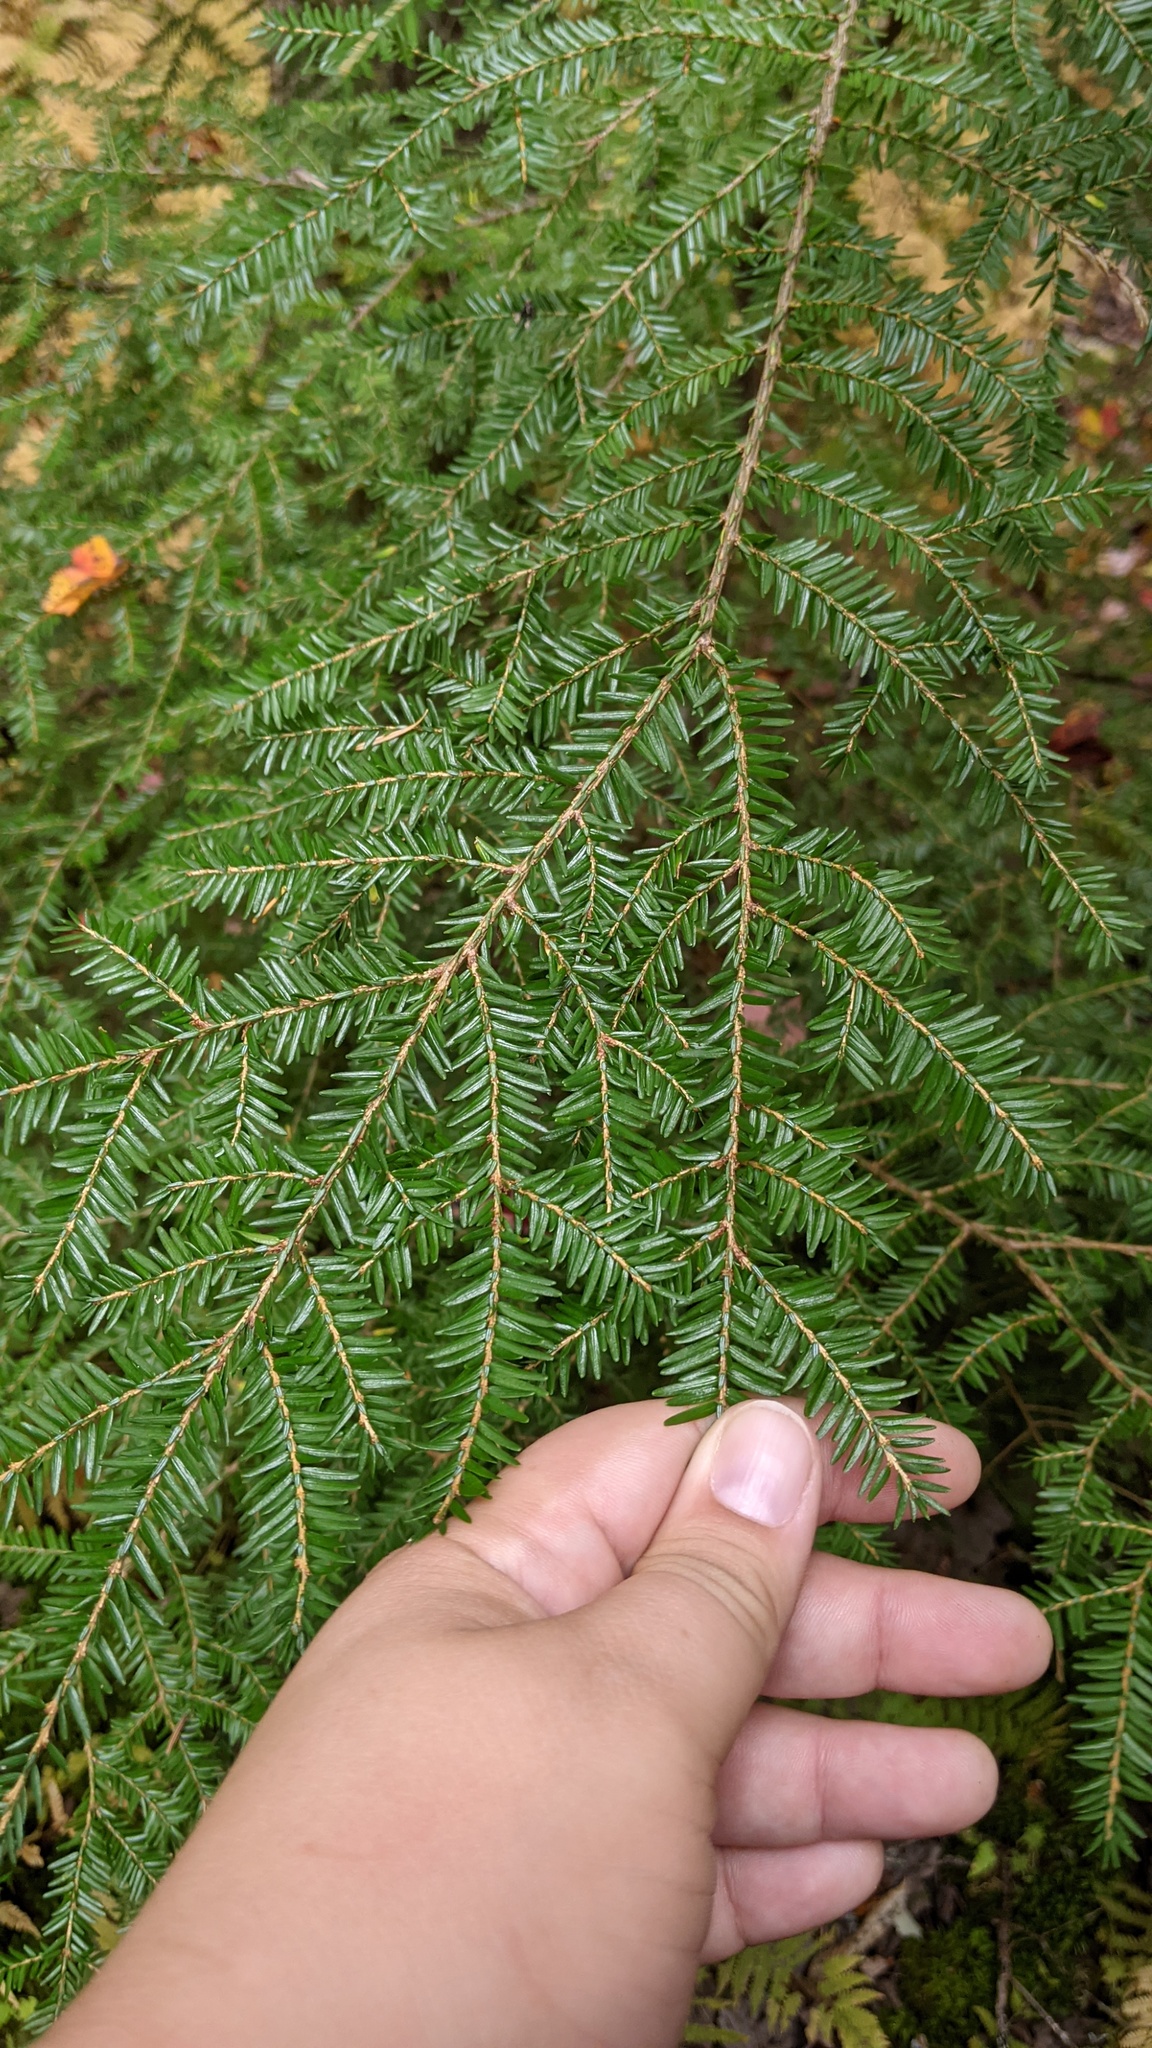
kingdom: Plantae
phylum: Tracheophyta
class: Pinopsida
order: Pinales
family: Pinaceae
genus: Tsuga
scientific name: Tsuga canadensis
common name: Eastern hemlock
